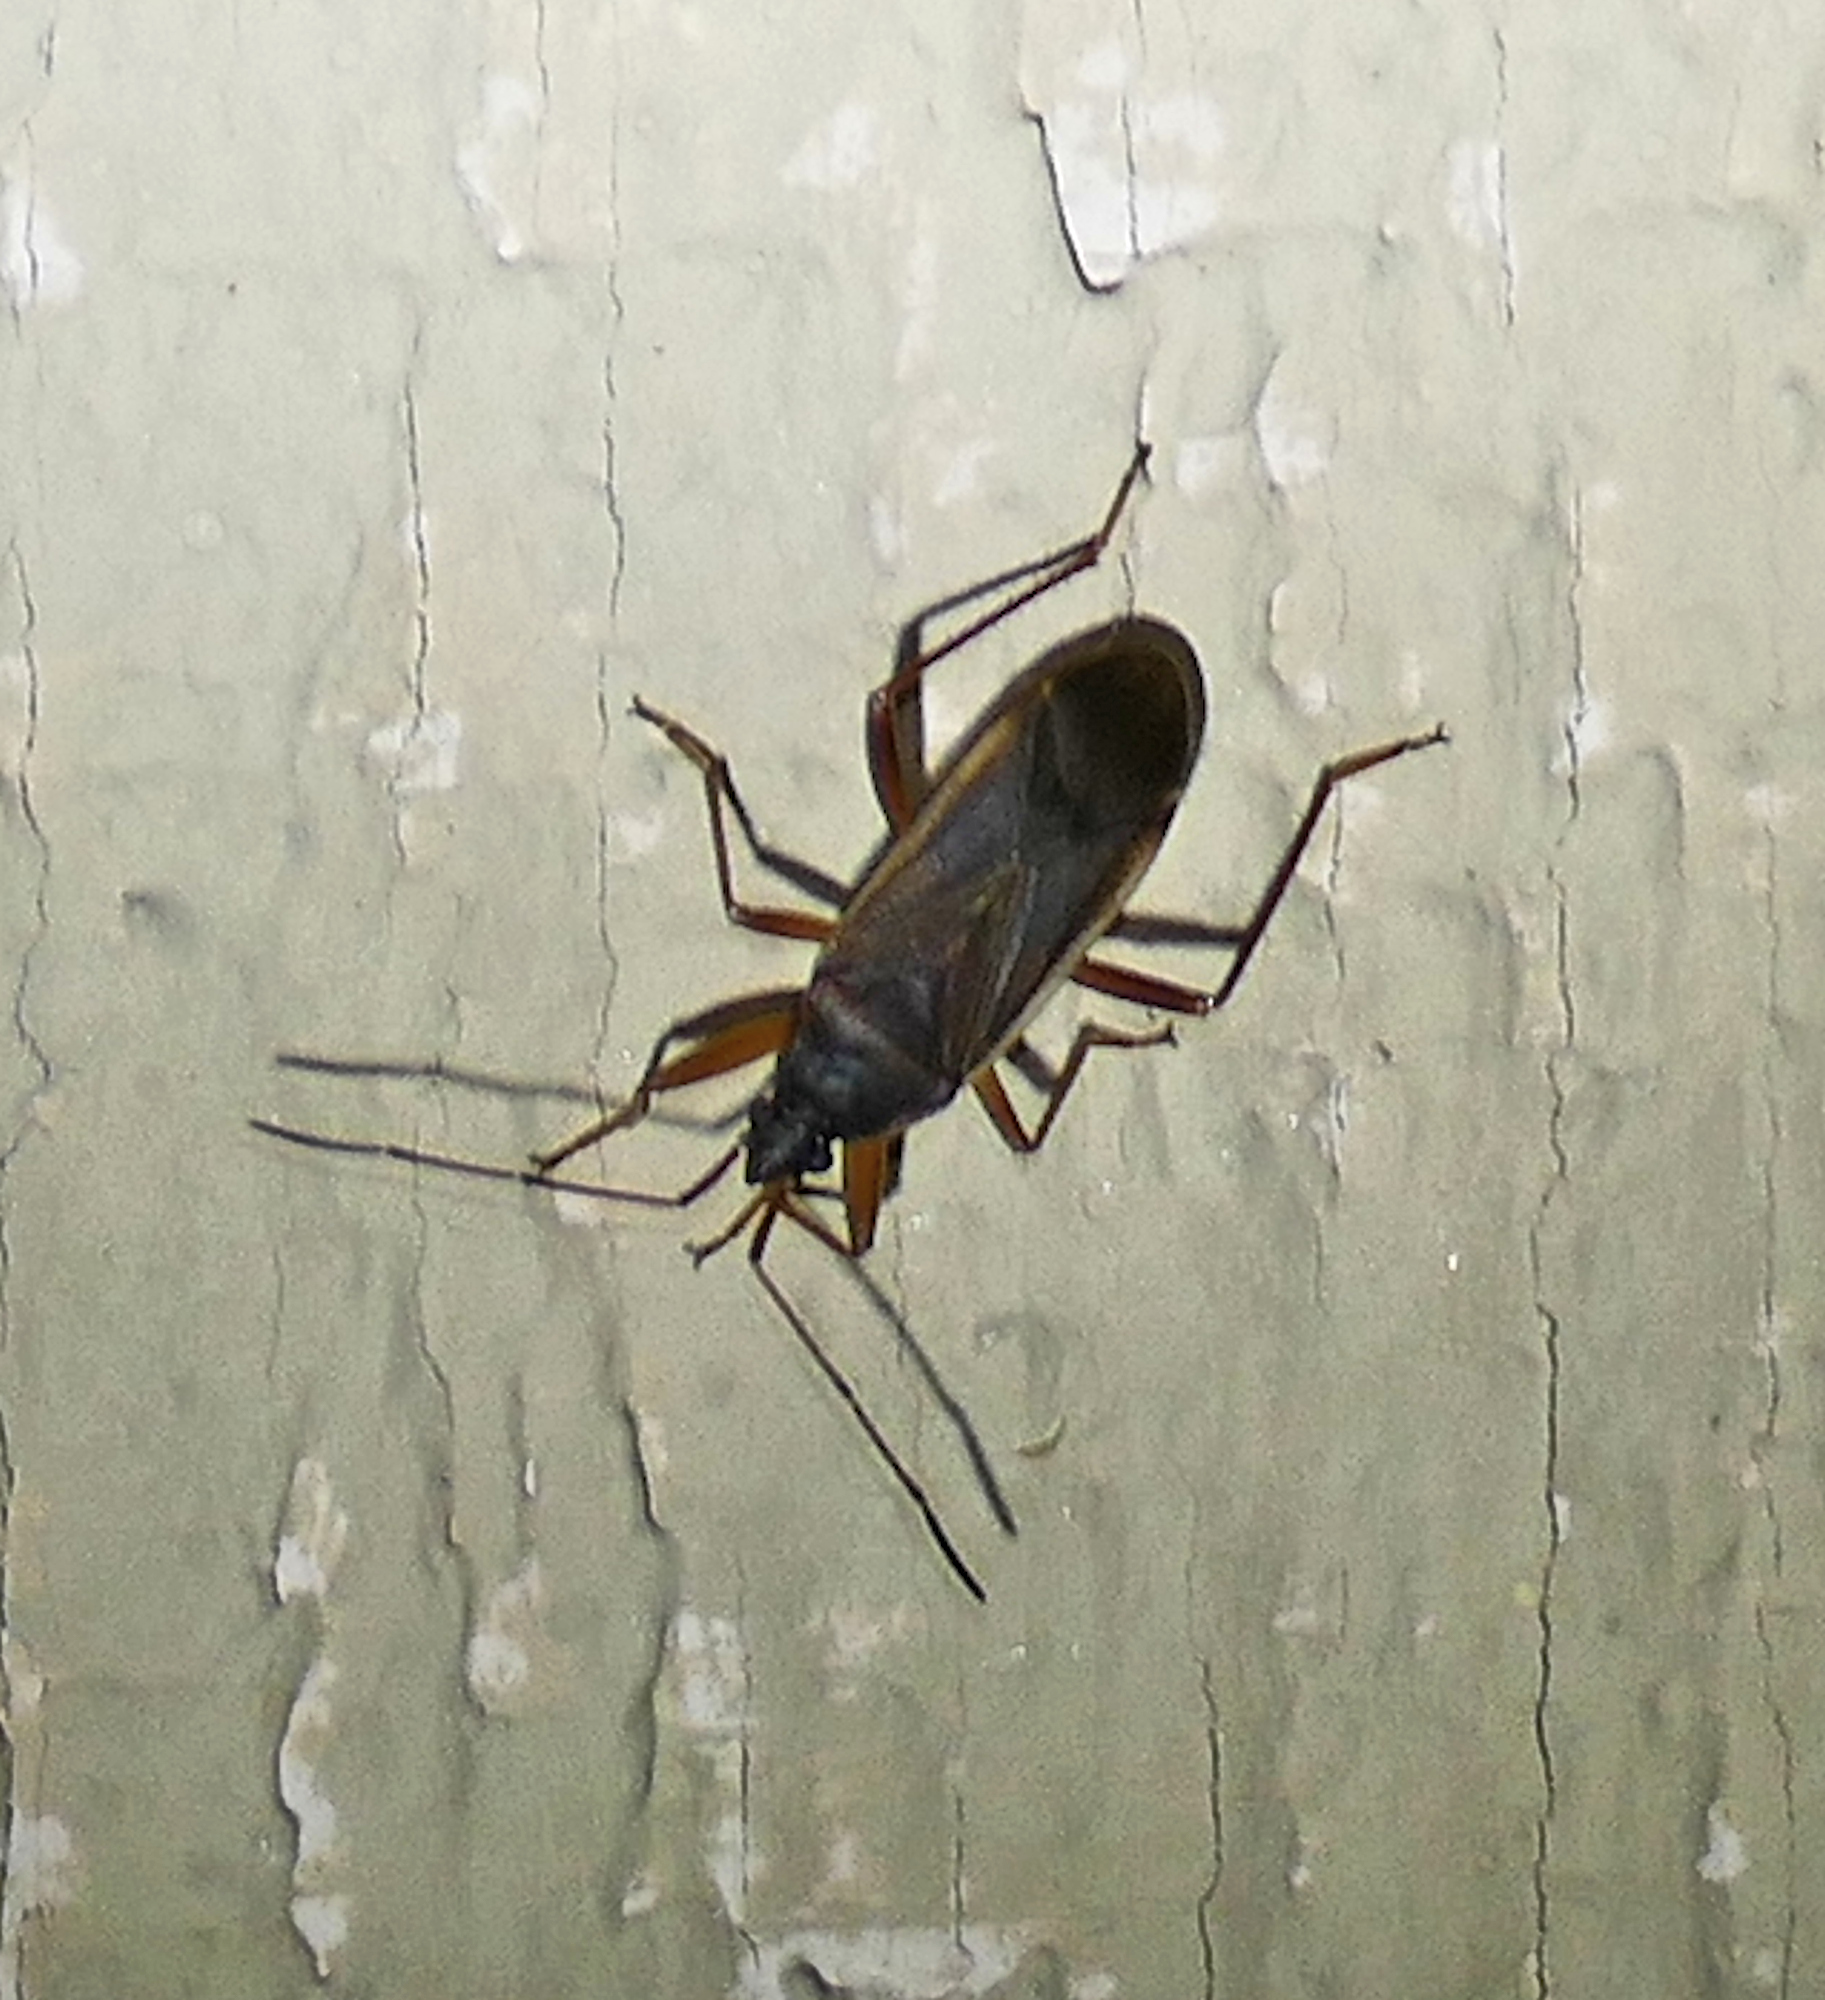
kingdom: Animalia
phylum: Arthropoda
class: Insecta
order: Hemiptera
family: Rhyparochromidae
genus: Balboa
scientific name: Balboa ampliata
